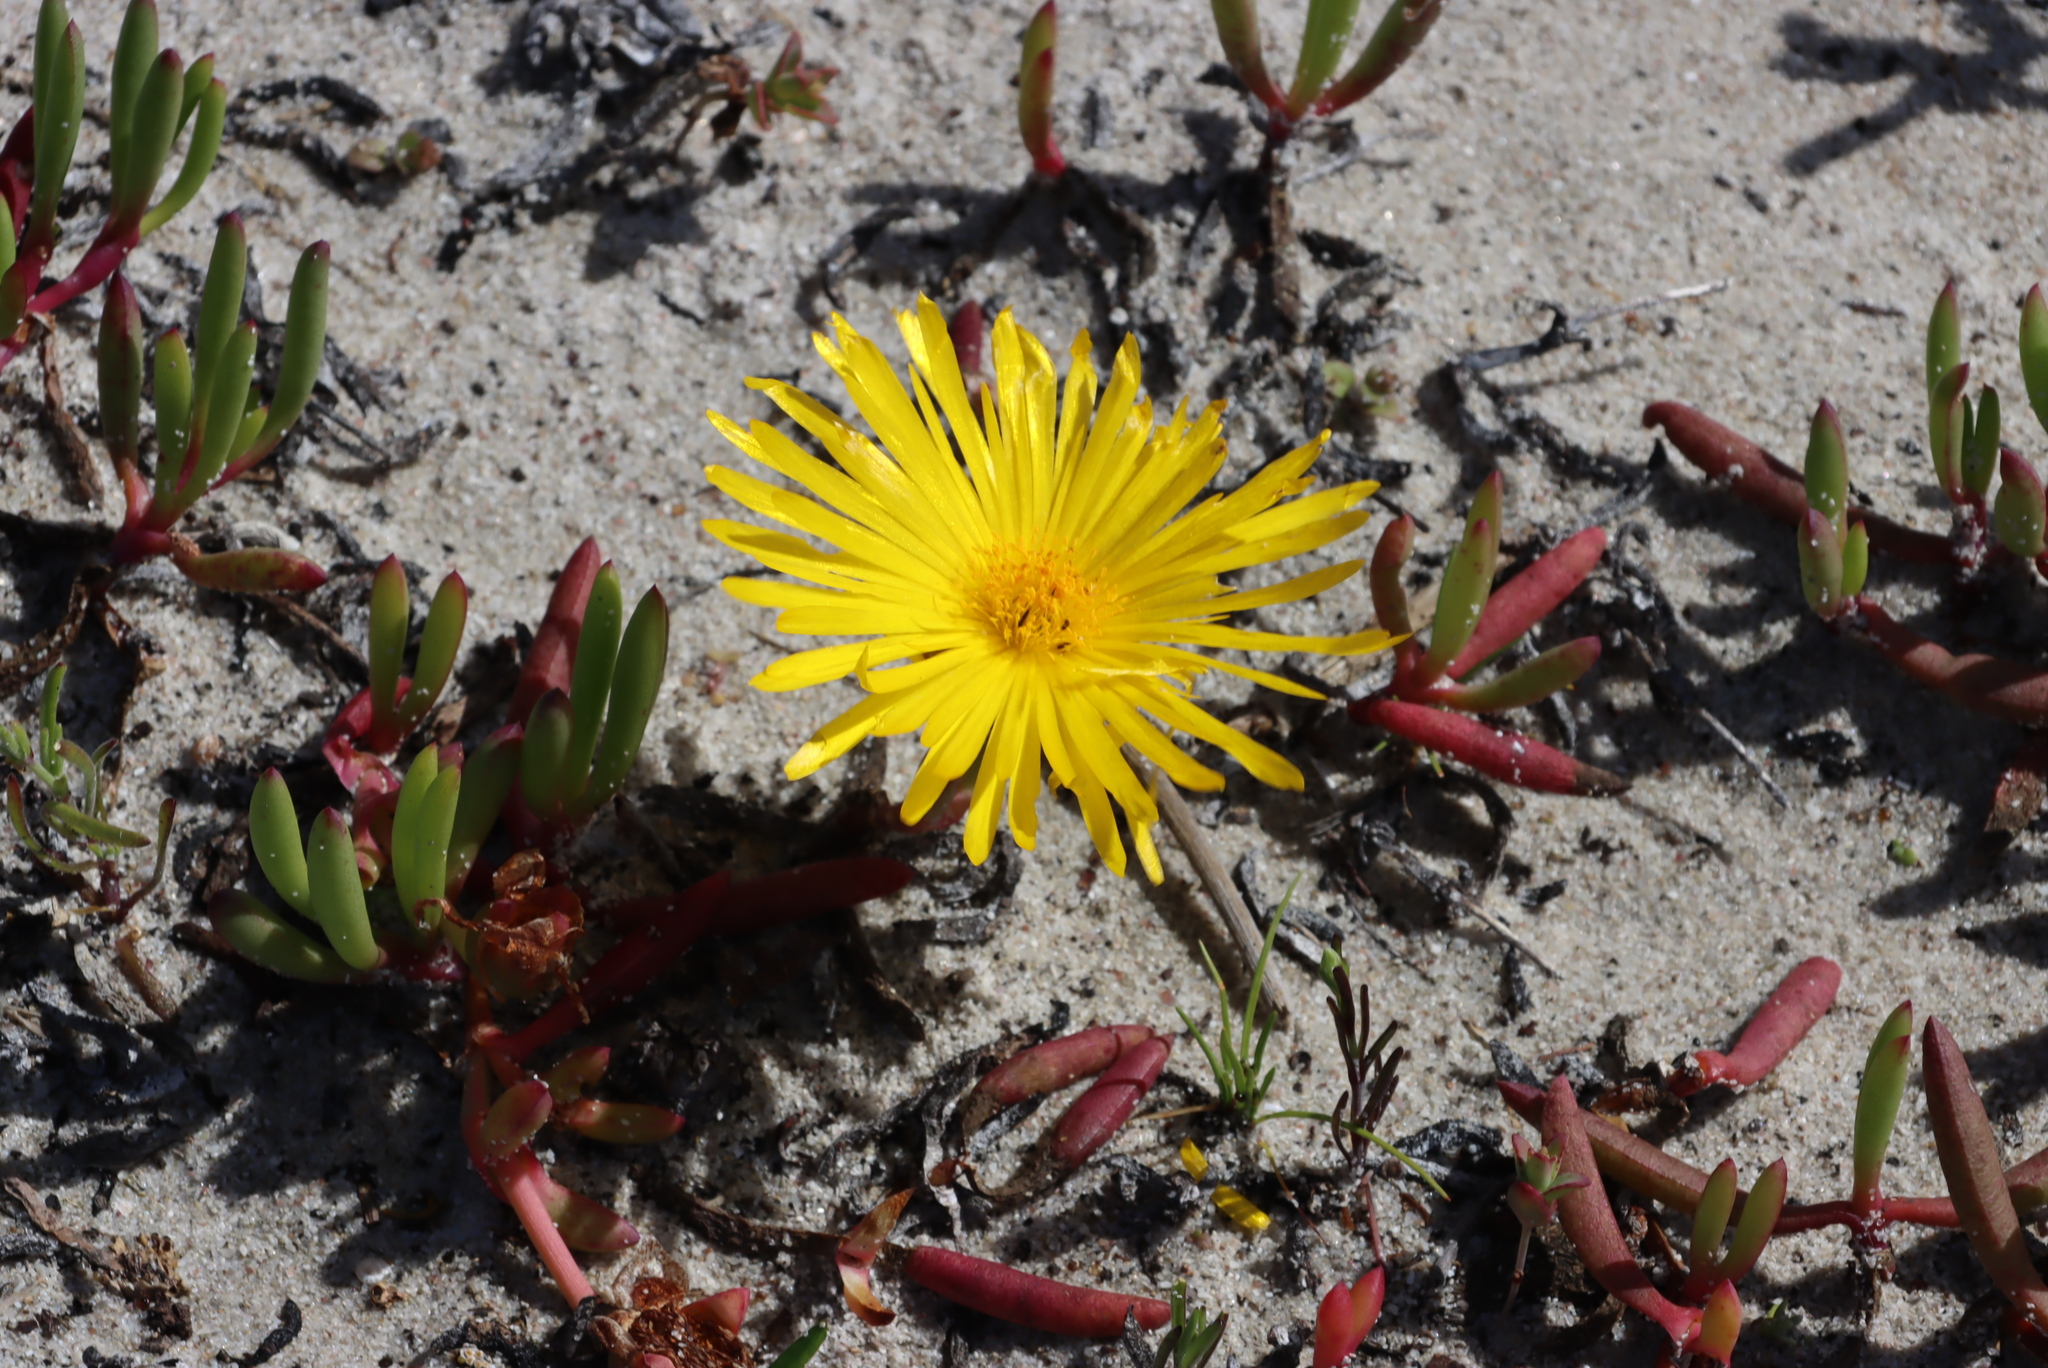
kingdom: Plantae
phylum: Tracheophyta
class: Magnoliopsida
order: Caryophyllales
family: Aizoaceae
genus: Jordaaniella
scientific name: Jordaaniella dubia
